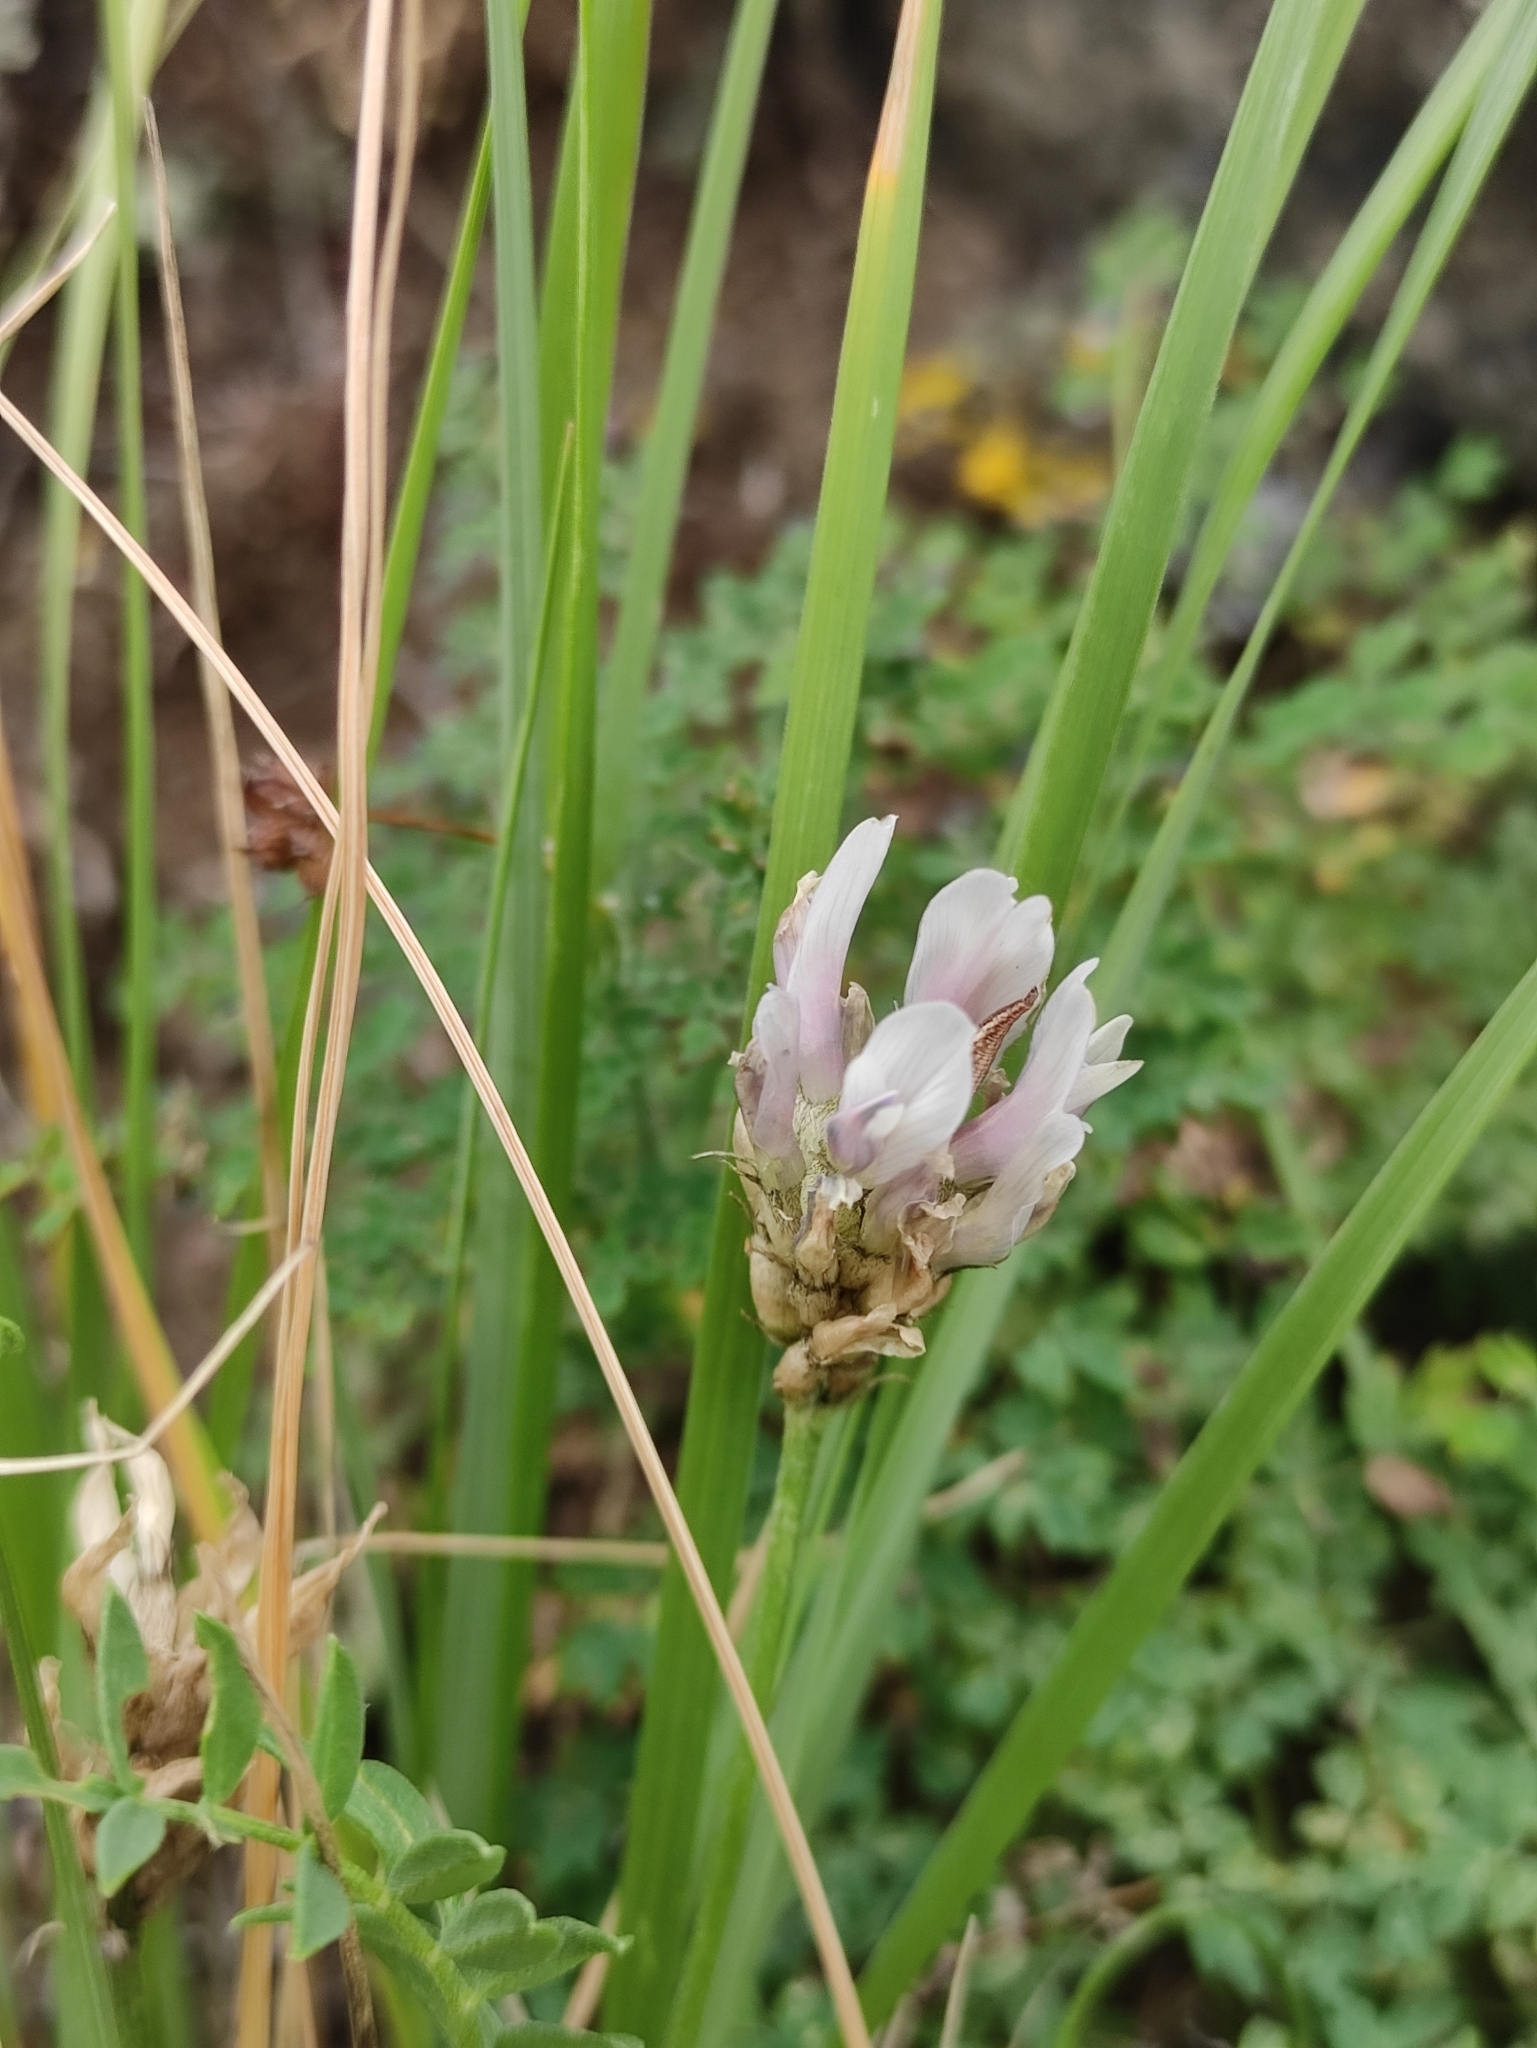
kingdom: Plantae
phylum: Tracheophyta
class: Magnoliopsida
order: Fabales
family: Fabaceae
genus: Astragalus
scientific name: Astragalus laxmannii
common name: Laxmann's milk-vetch
